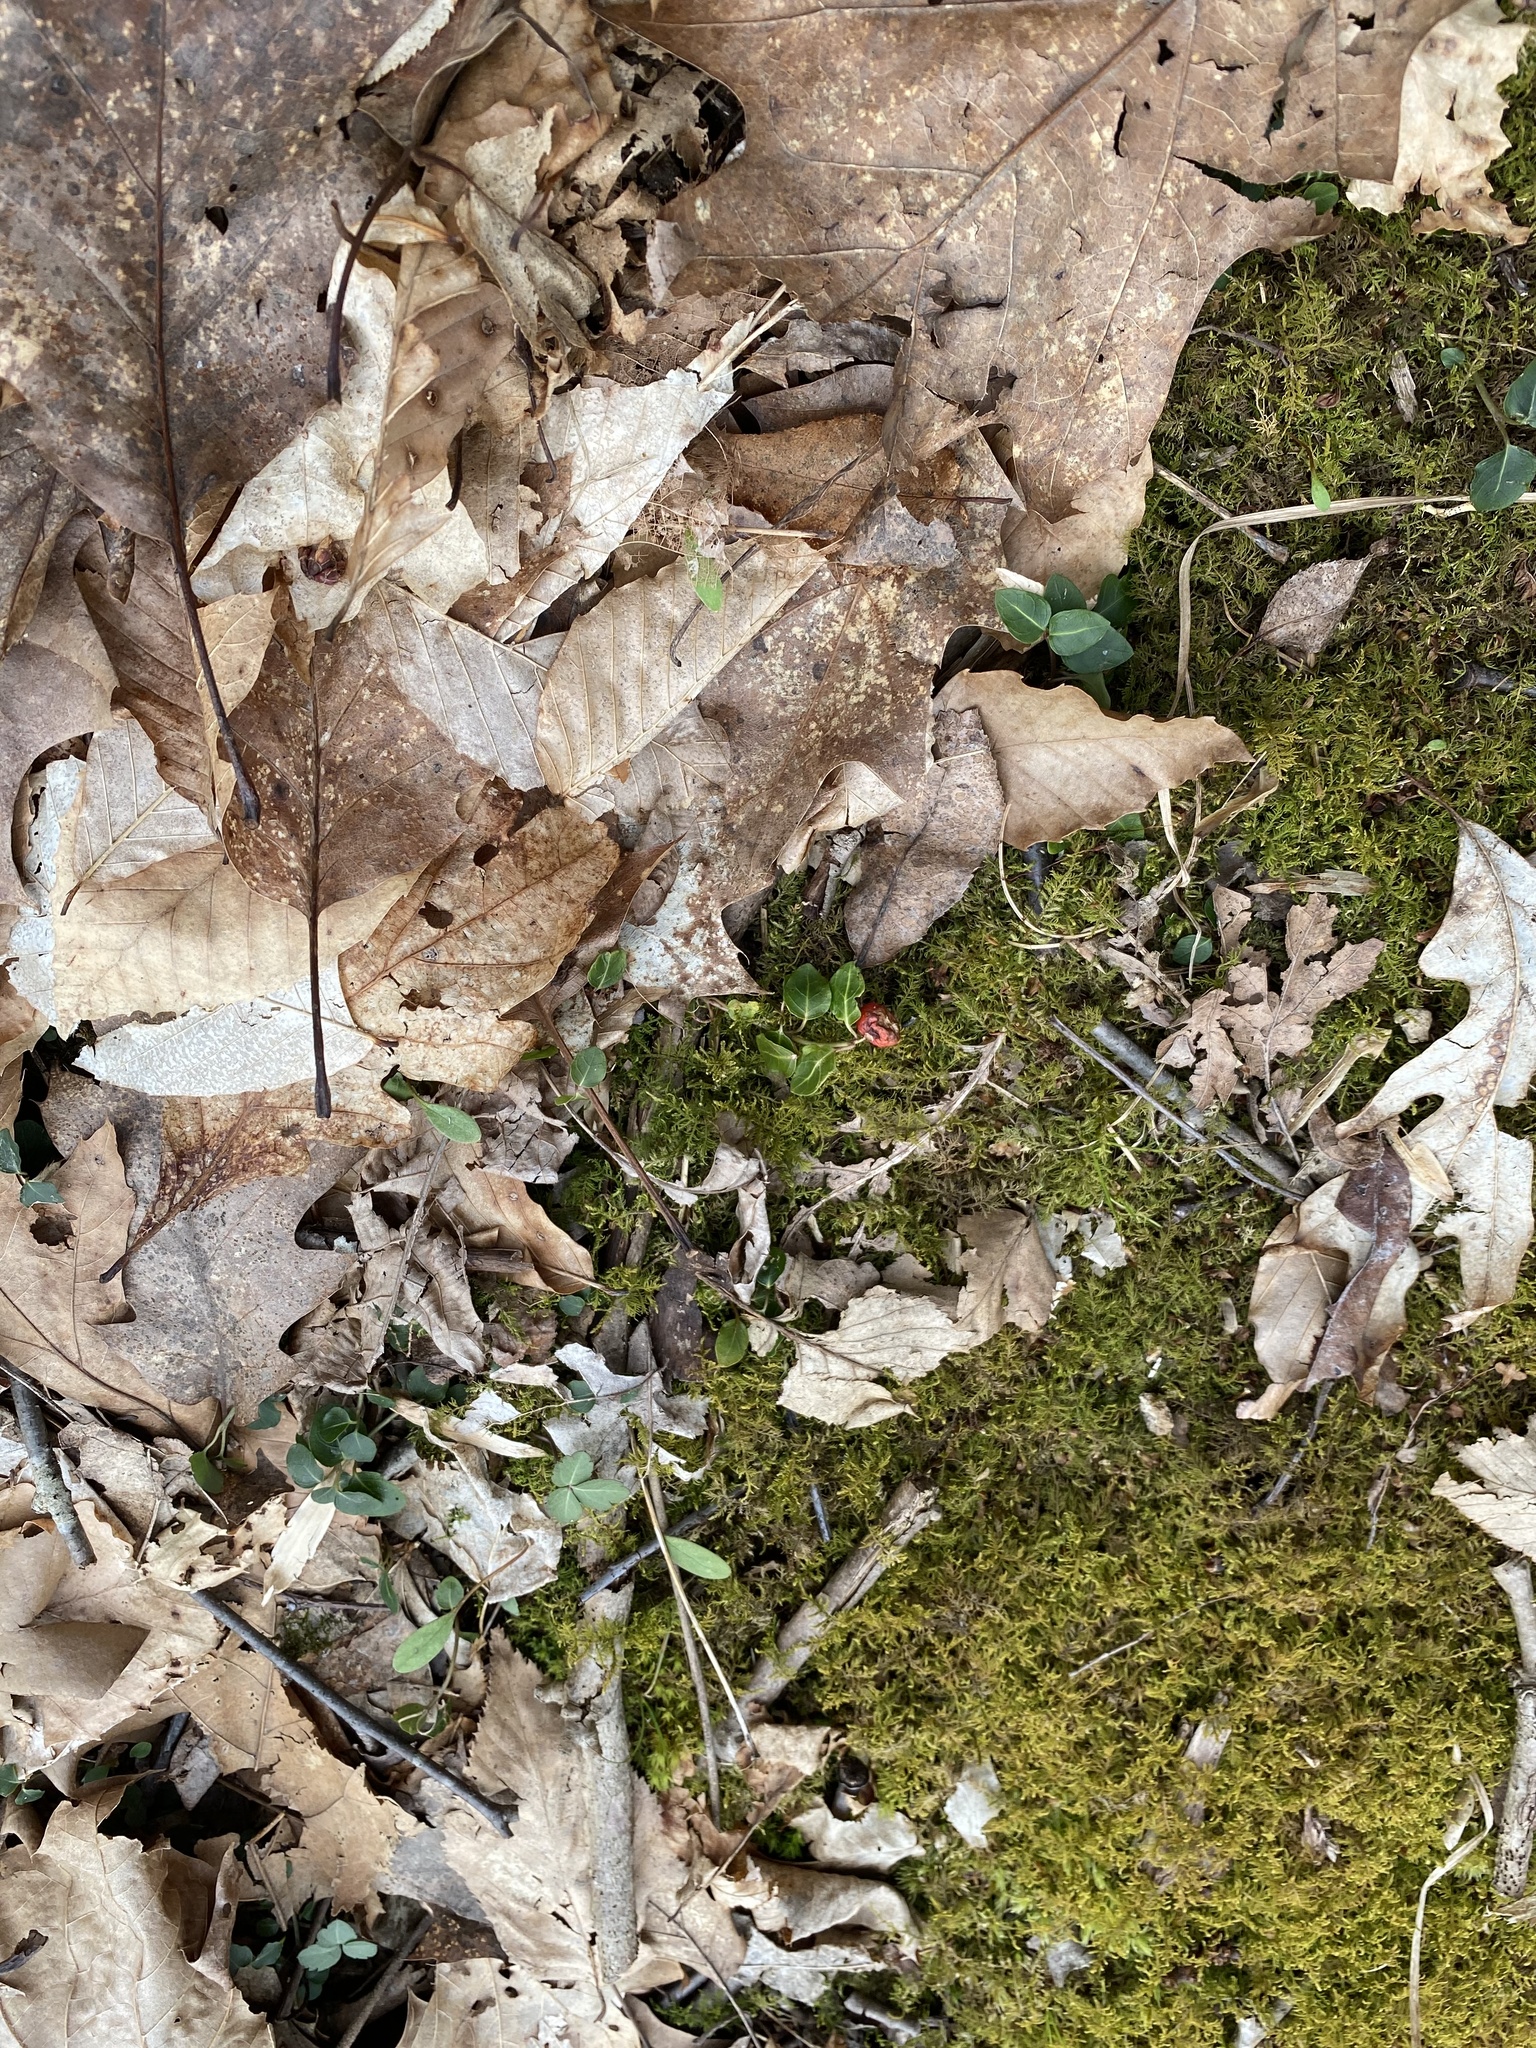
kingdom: Plantae
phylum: Tracheophyta
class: Magnoliopsida
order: Gentianales
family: Rubiaceae
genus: Mitchella
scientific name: Mitchella repens
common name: Partridge-berry
